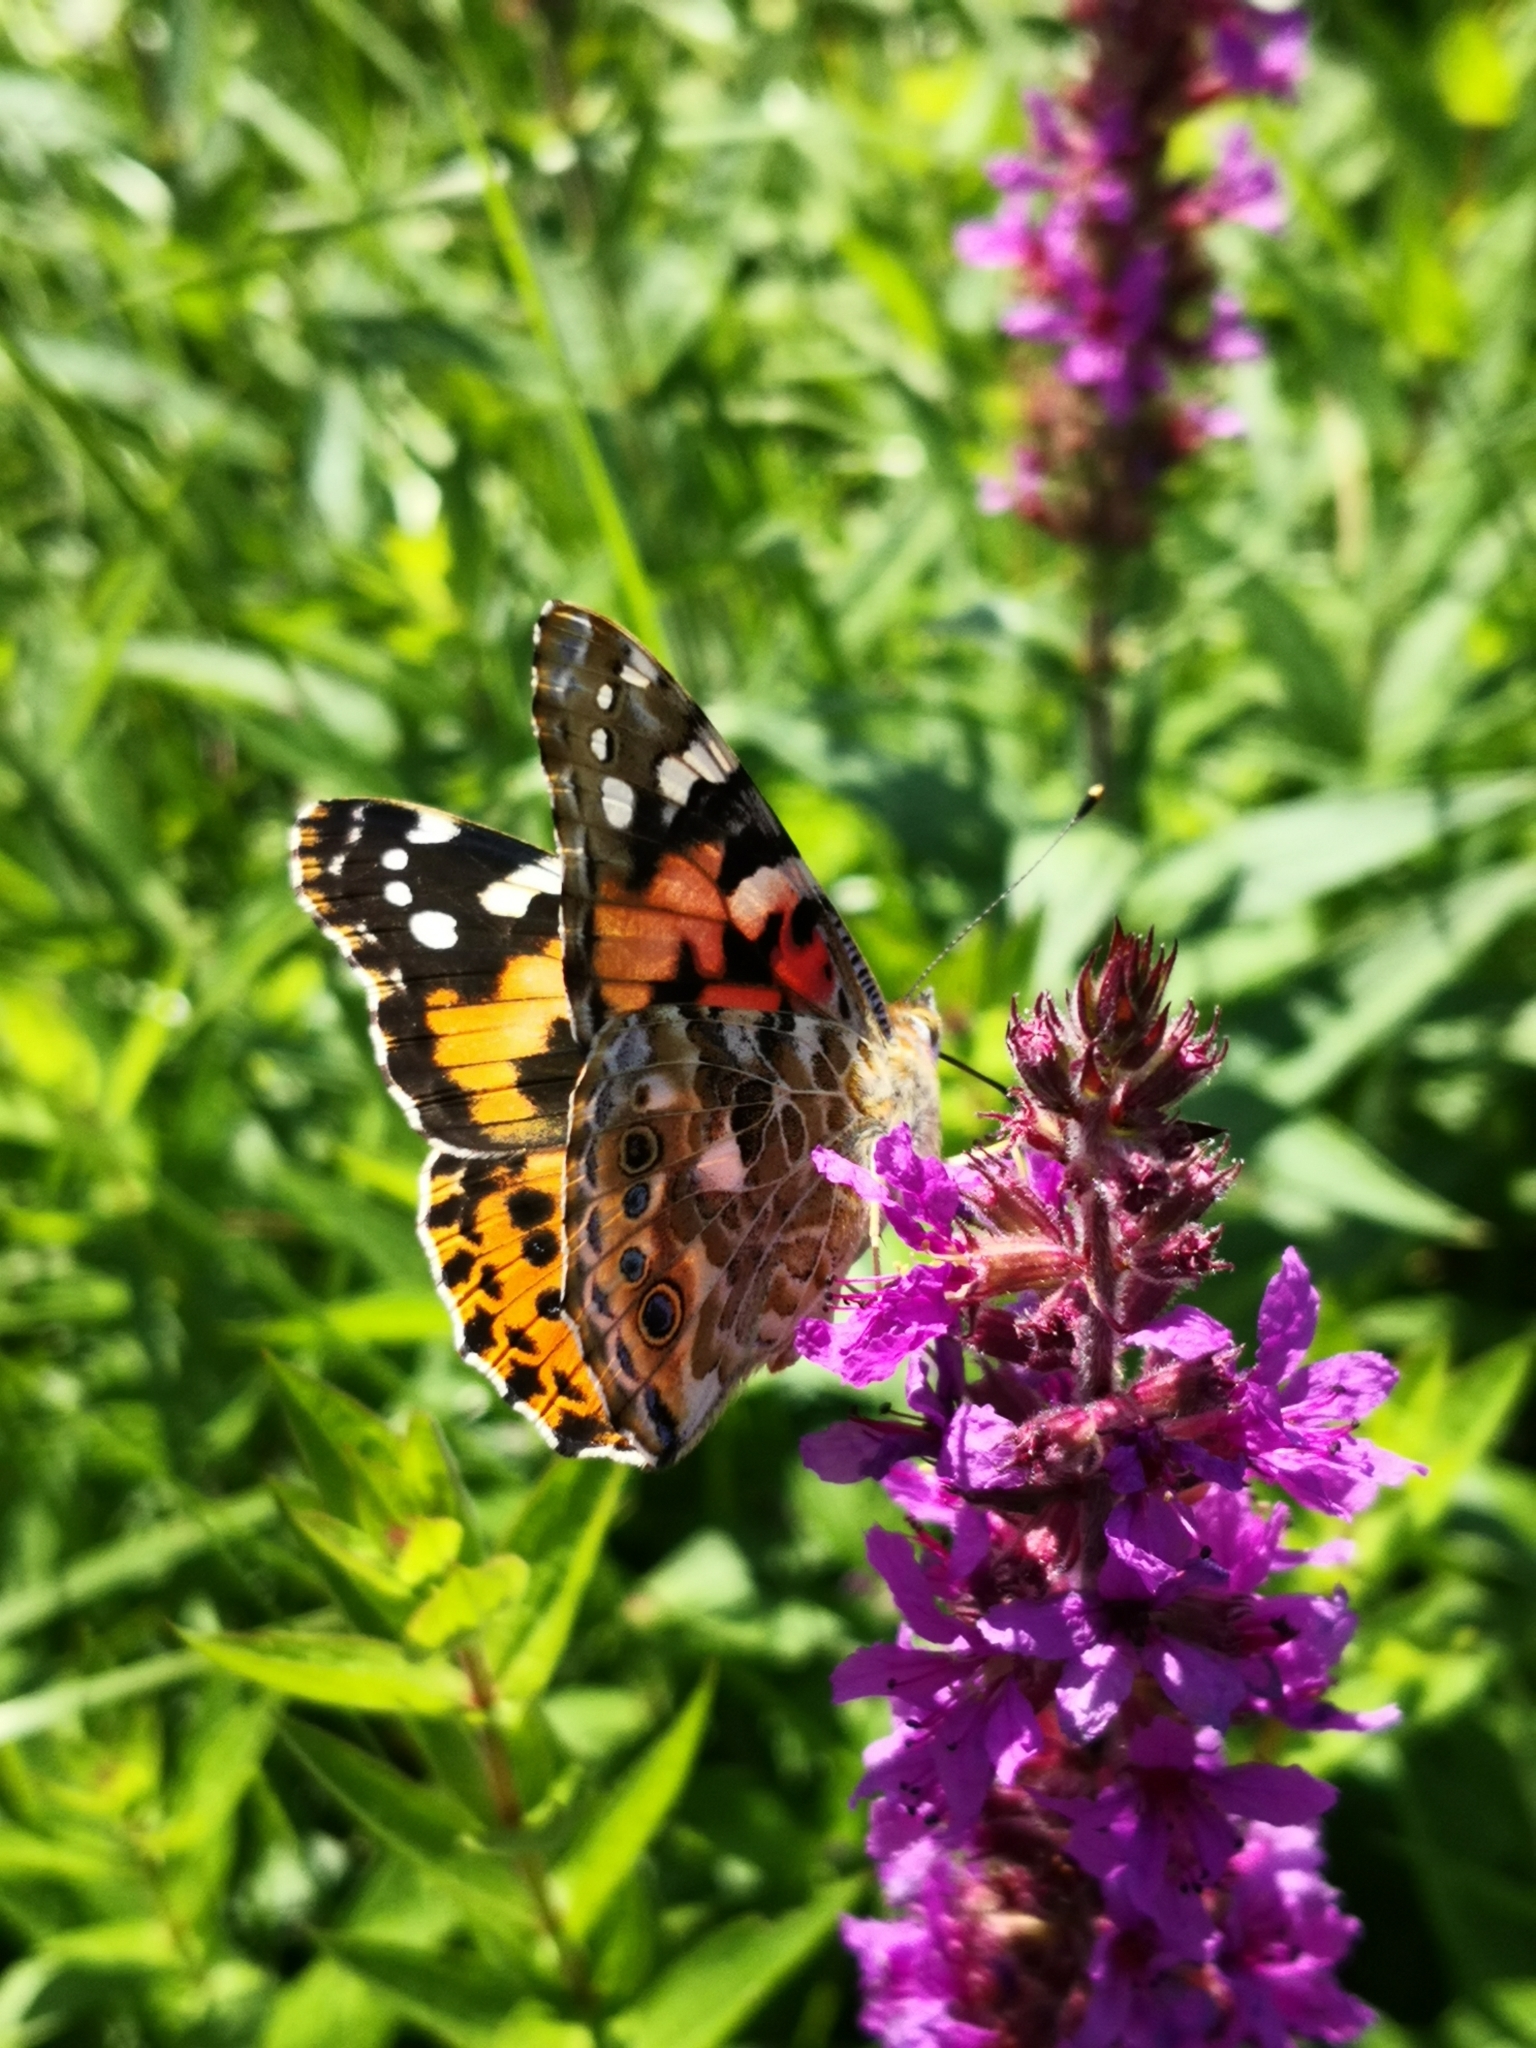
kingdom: Animalia
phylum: Arthropoda
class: Insecta
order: Lepidoptera
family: Nymphalidae
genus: Vanessa
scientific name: Vanessa cardui
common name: Painted lady
